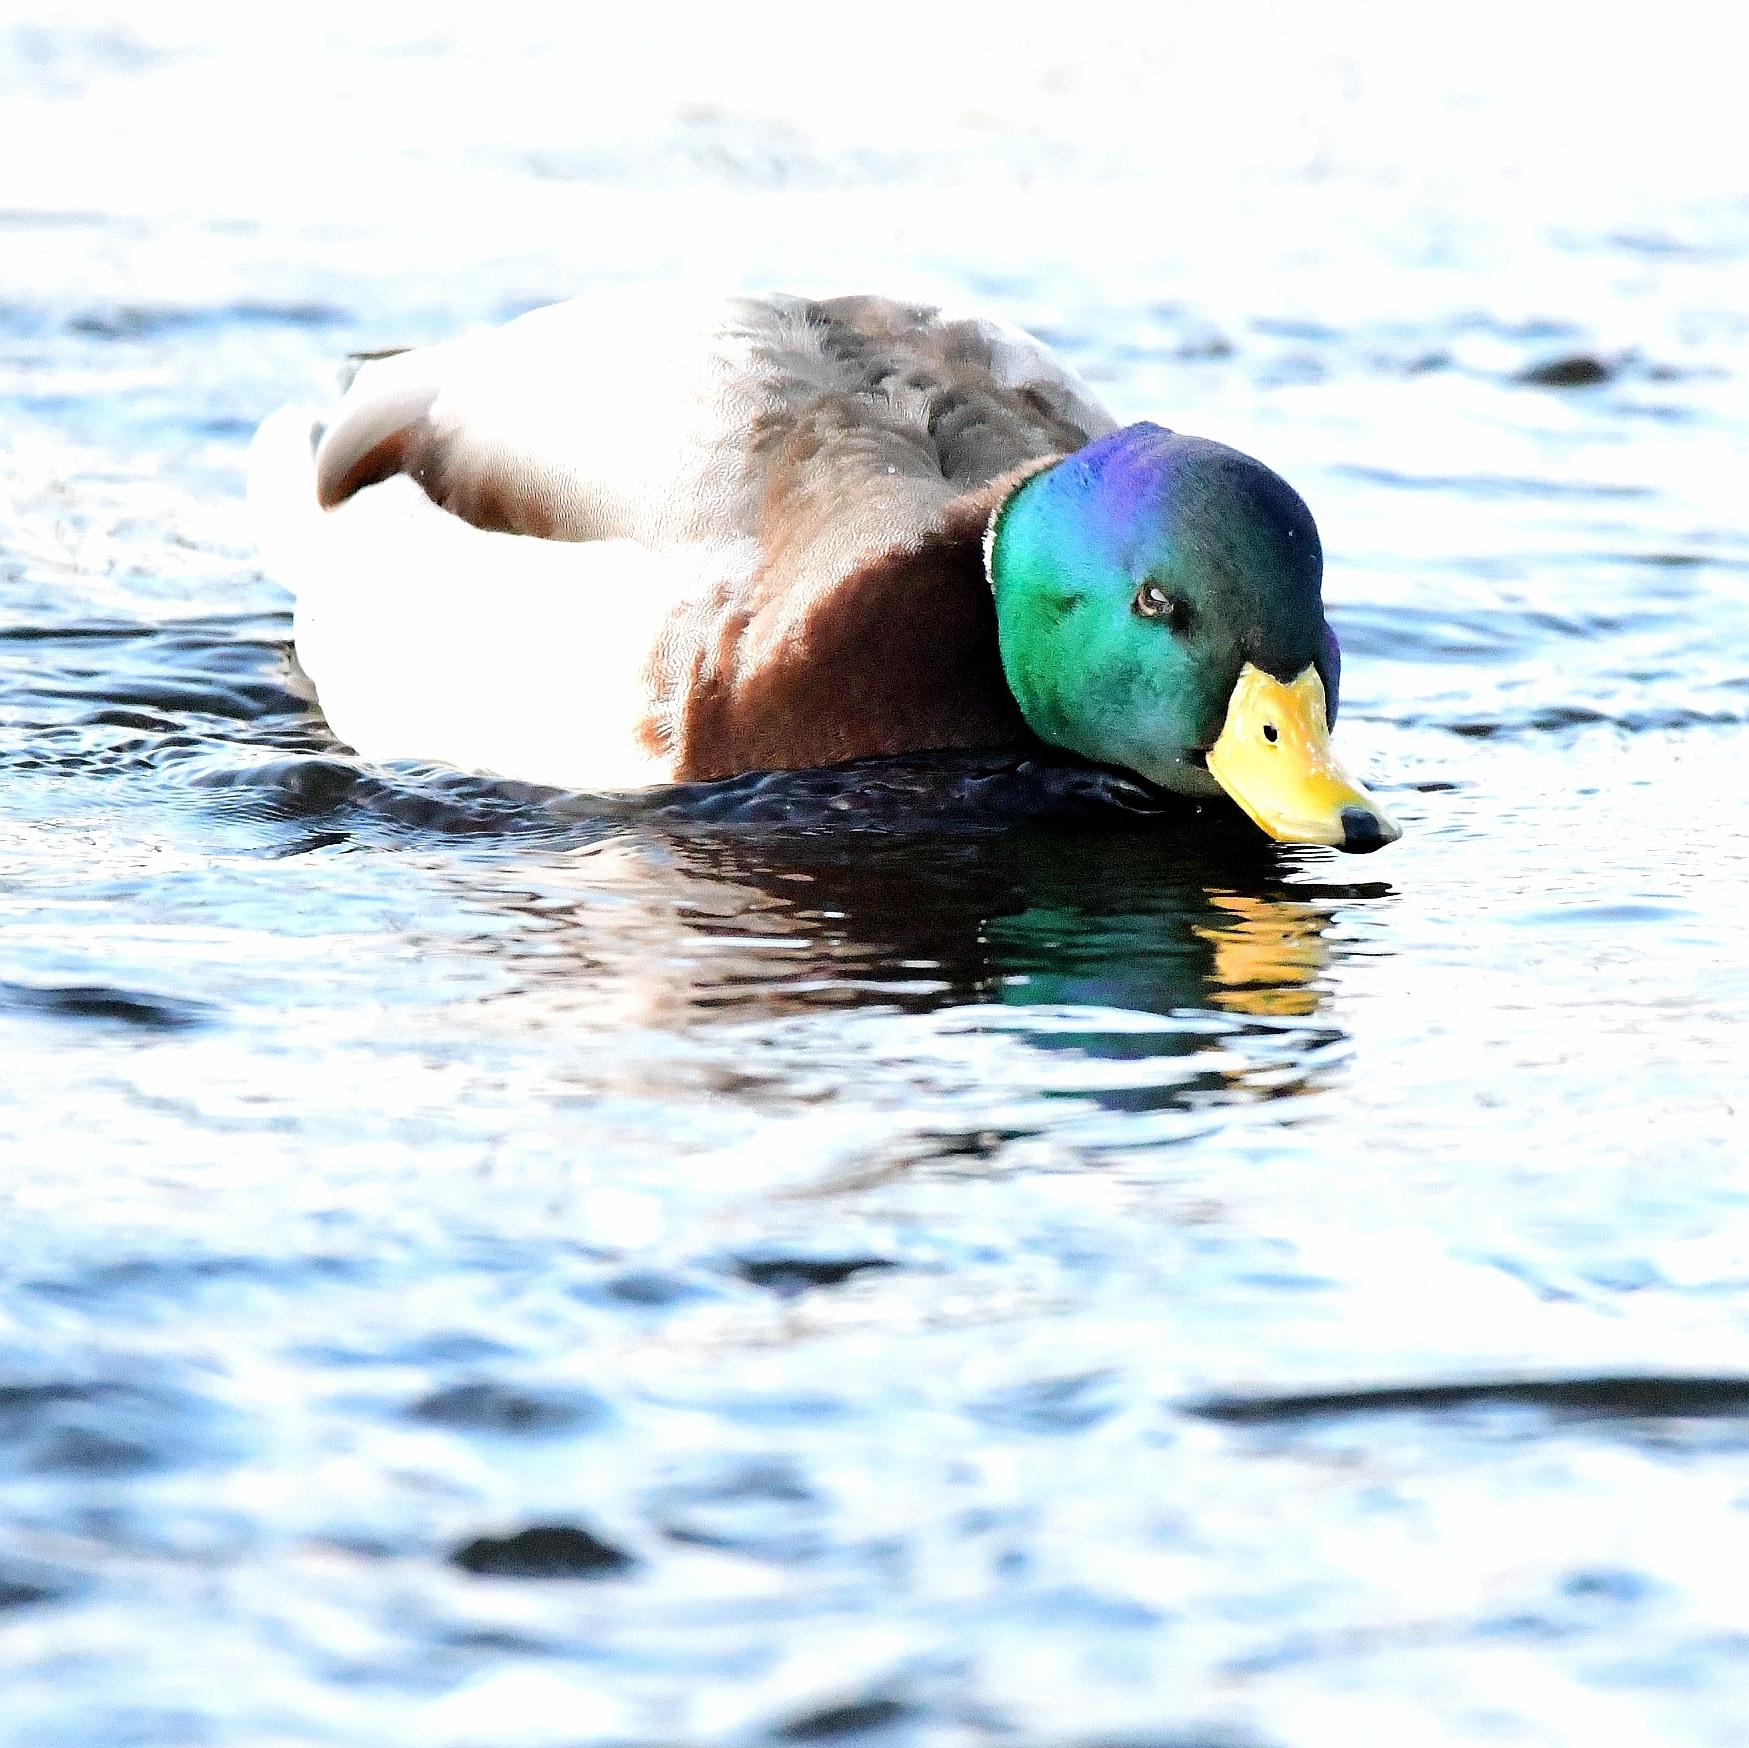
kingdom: Animalia
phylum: Chordata
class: Aves
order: Anseriformes
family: Anatidae
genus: Anas
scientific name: Anas platyrhynchos
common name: Mallard
